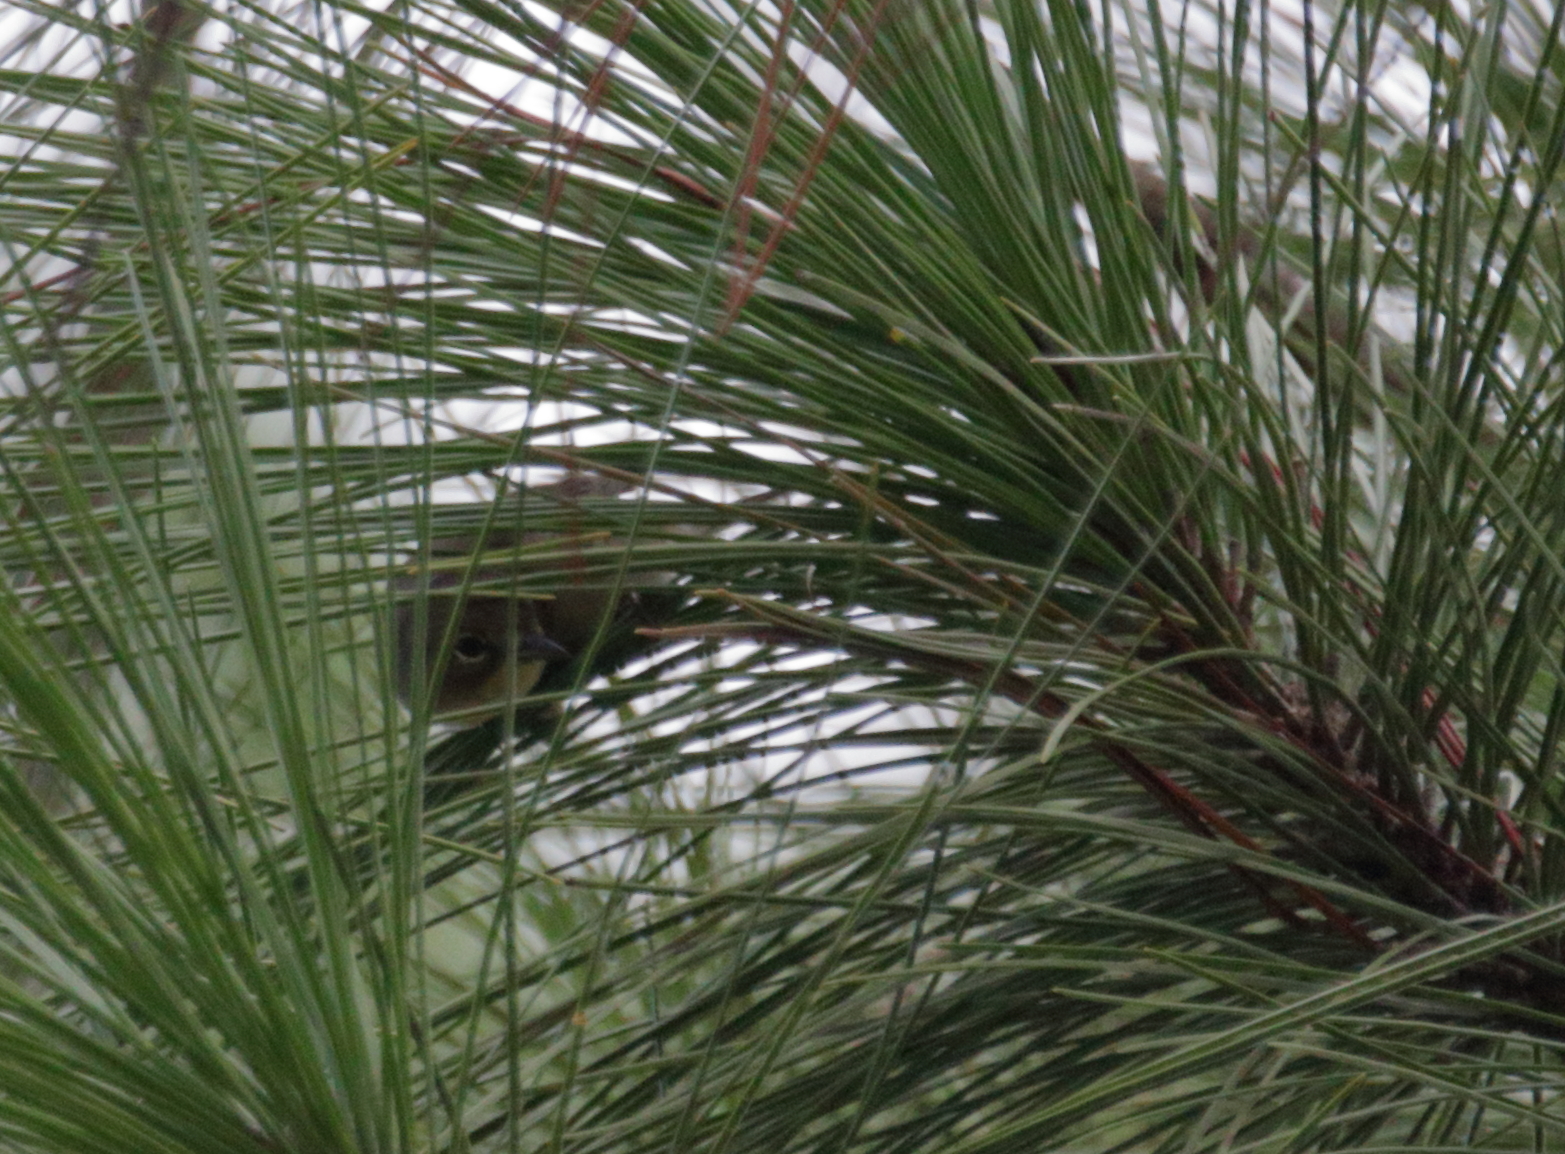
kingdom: Animalia
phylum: Chordata
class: Aves
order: Passeriformes
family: Parulidae
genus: Setophaga
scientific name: Setophaga pinus
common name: Pine warbler
